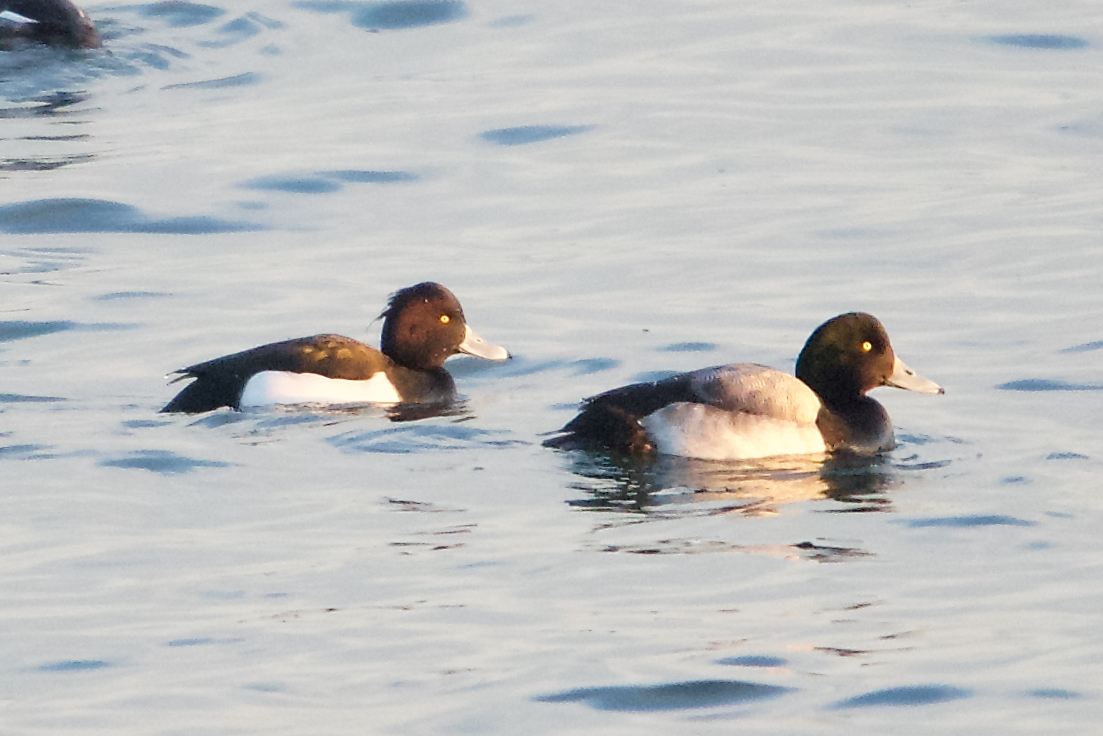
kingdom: Animalia
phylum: Chordata
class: Aves
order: Anseriformes
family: Anatidae
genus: Aythya
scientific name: Aythya fuligula
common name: Tufted duck
